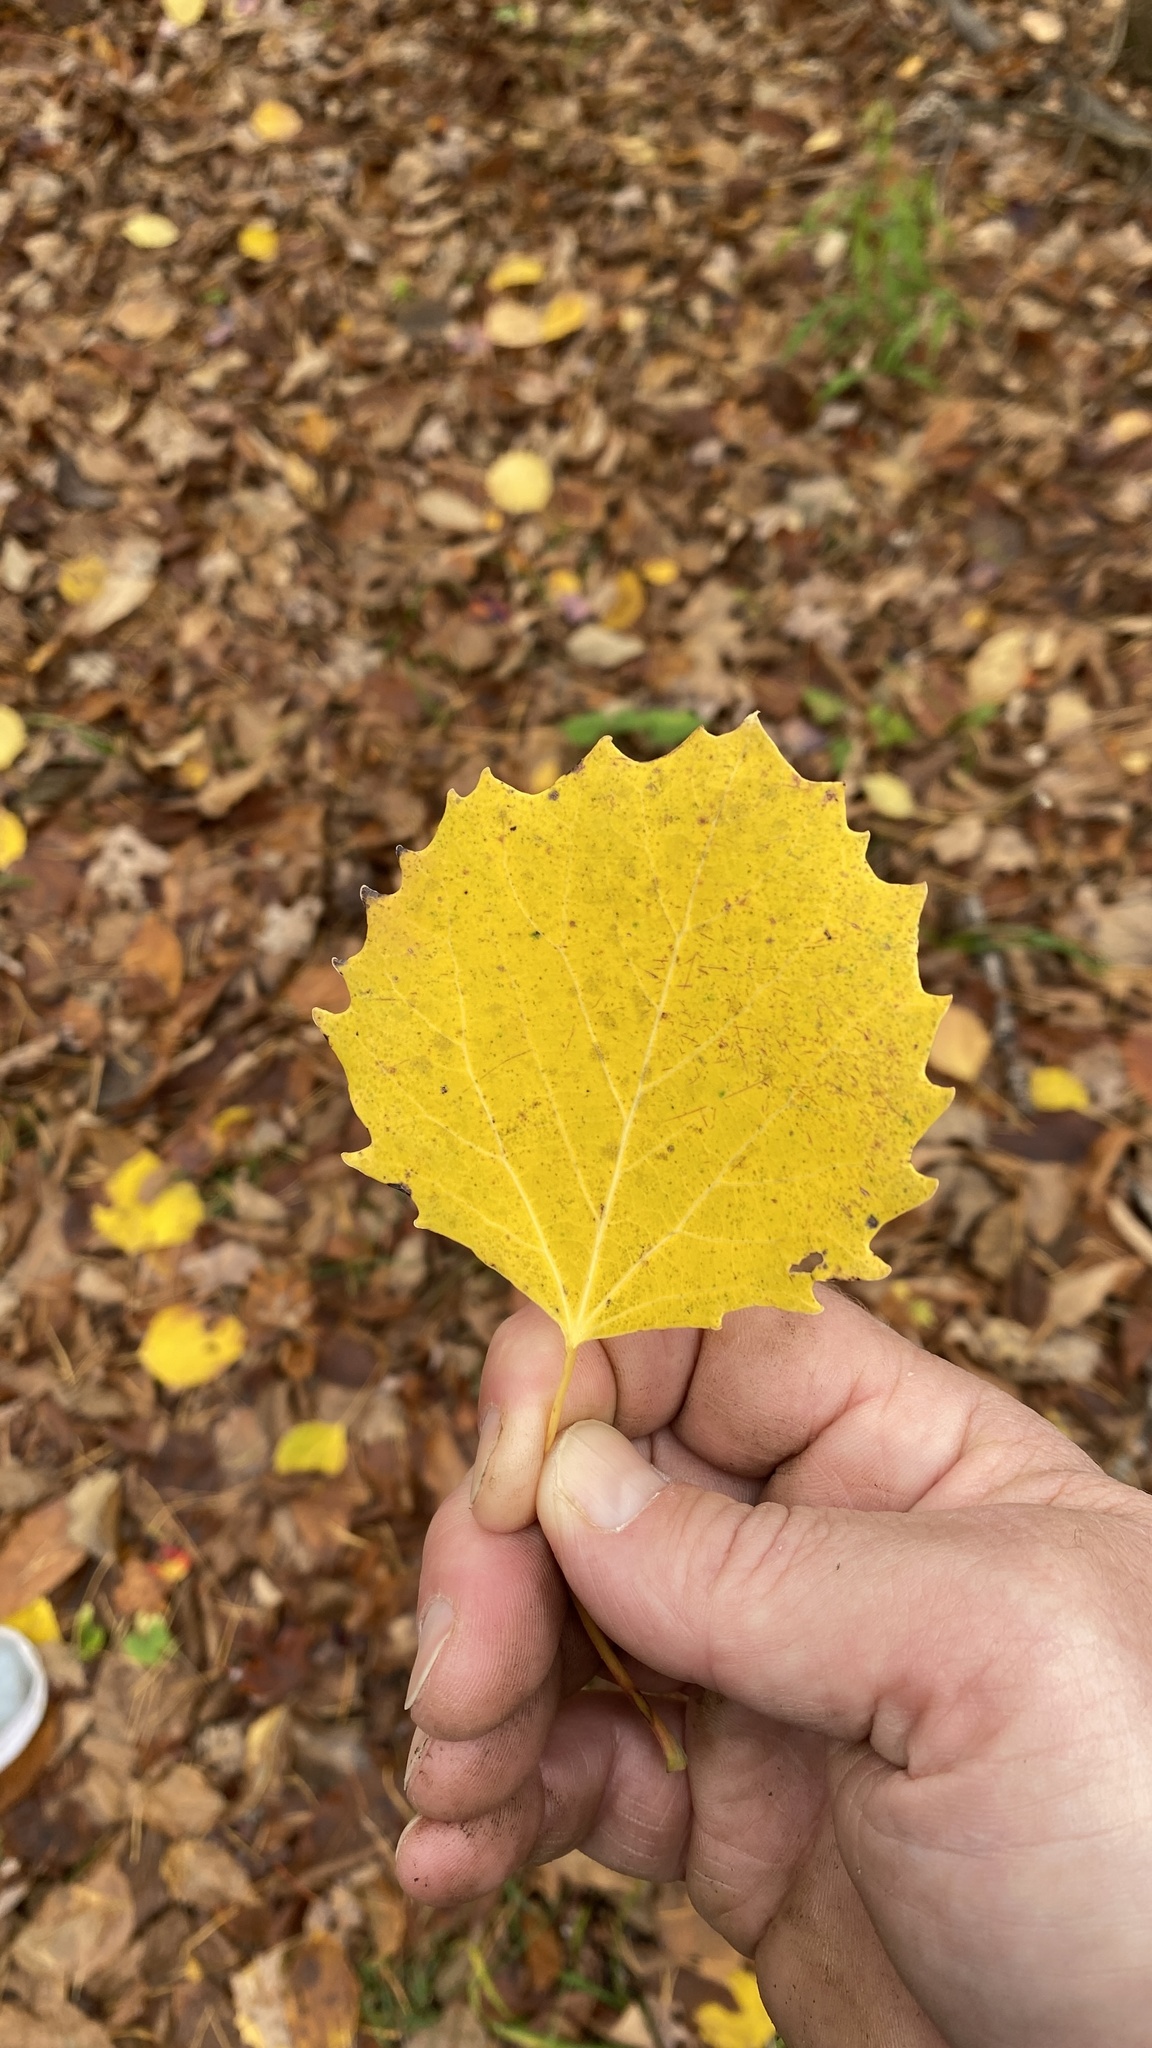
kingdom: Plantae
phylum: Tracheophyta
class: Magnoliopsida
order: Malpighiales
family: Salicaceae
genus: Populus
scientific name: Populus grandidentata
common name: Bigtooth aspen
